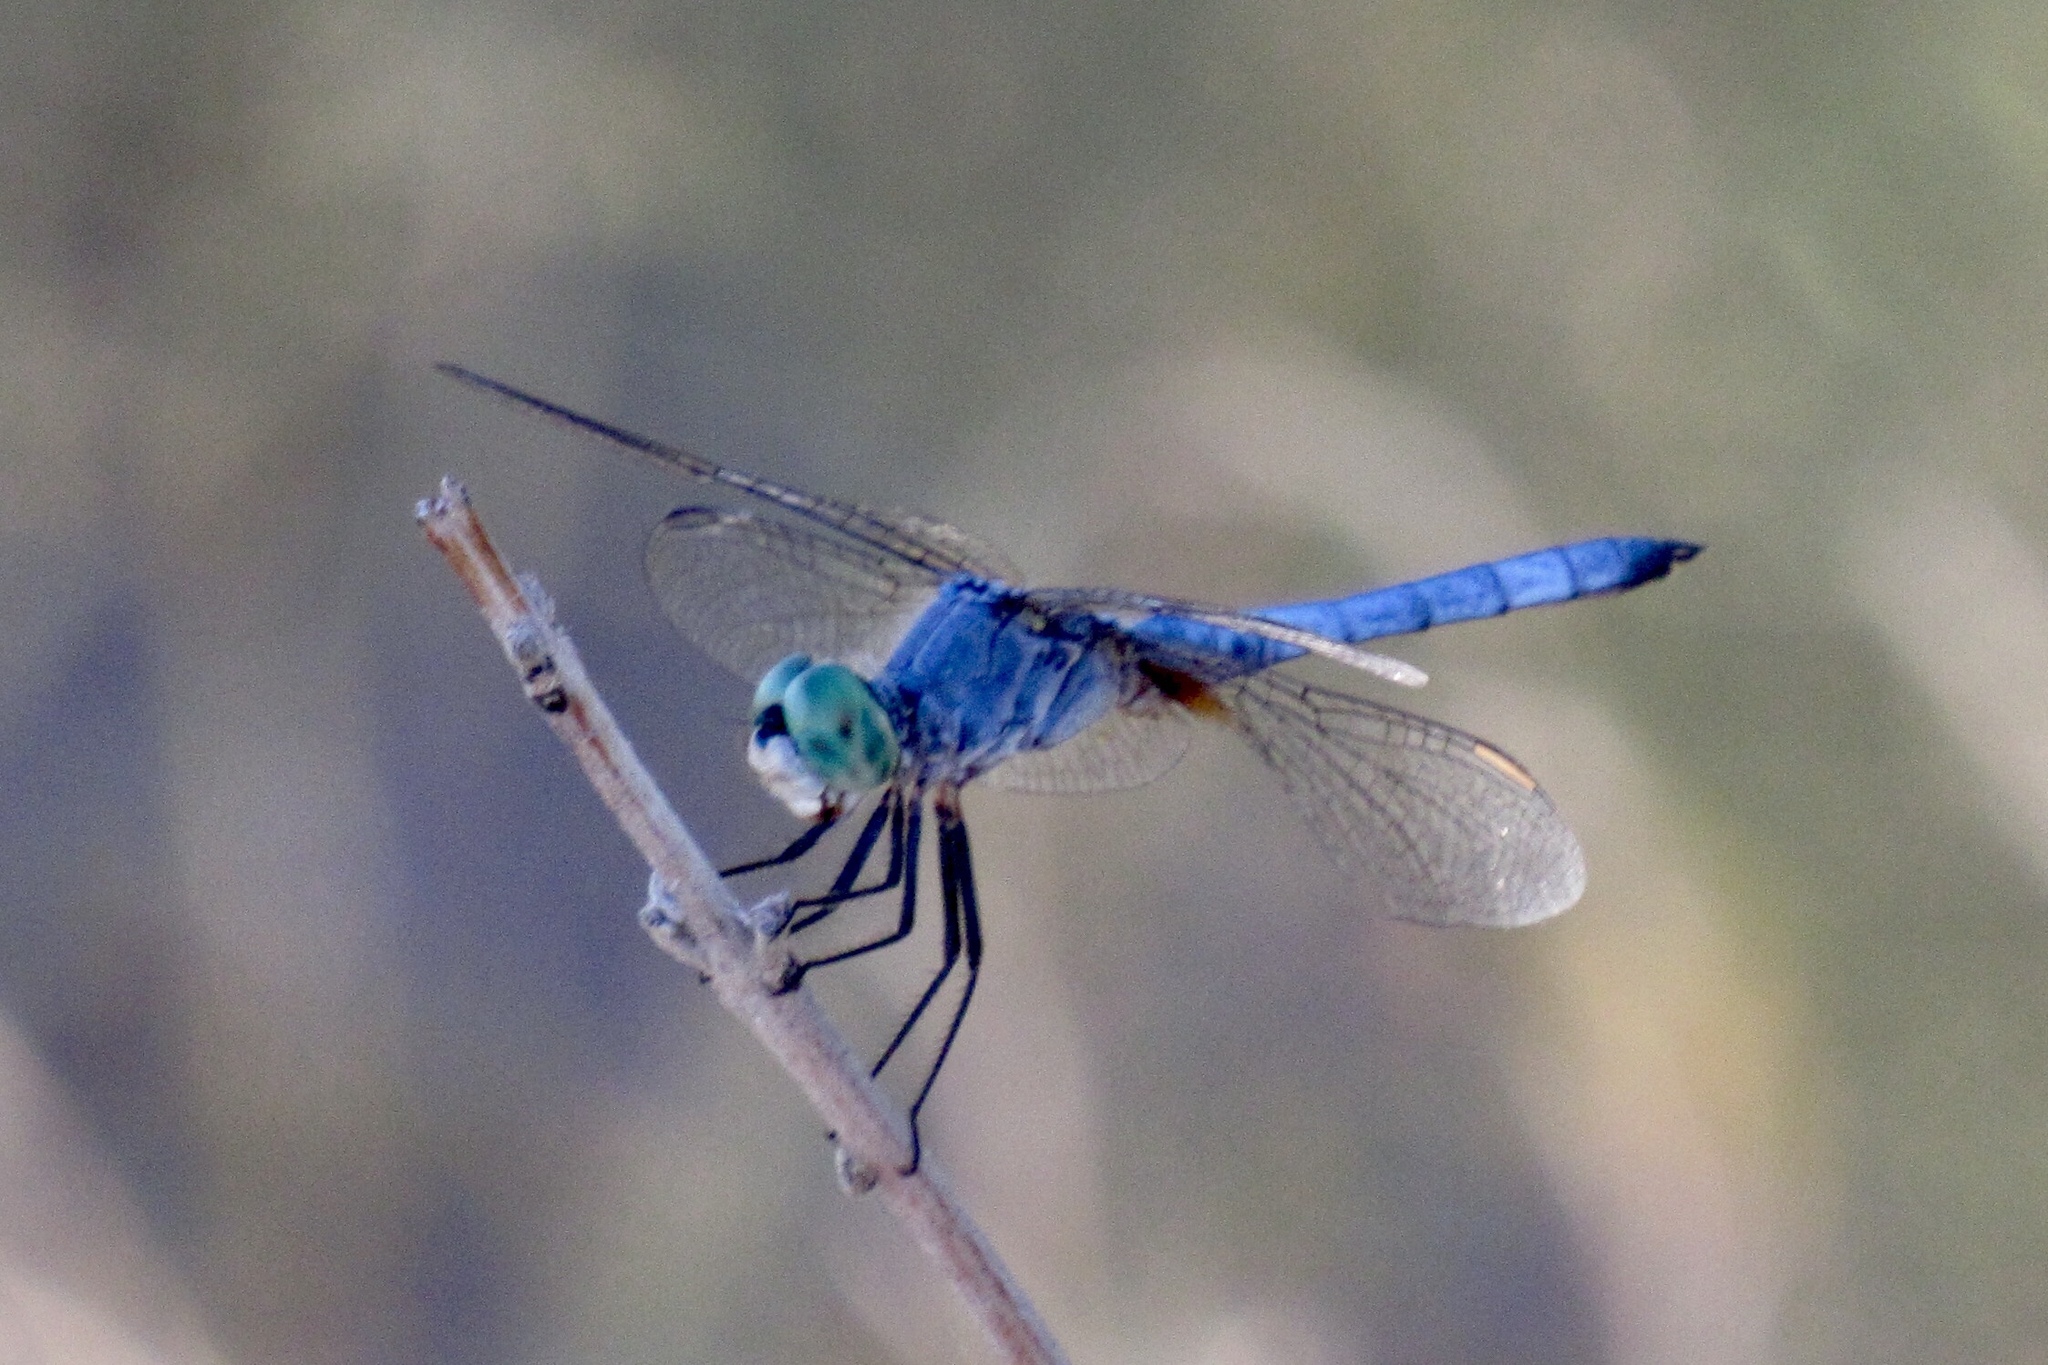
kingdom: Animalia
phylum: Arthropoda
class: Insecta
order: Odonata
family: Libellulidae
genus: Pachydiplax
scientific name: Pachydiplax longipennis
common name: Blue dasher
